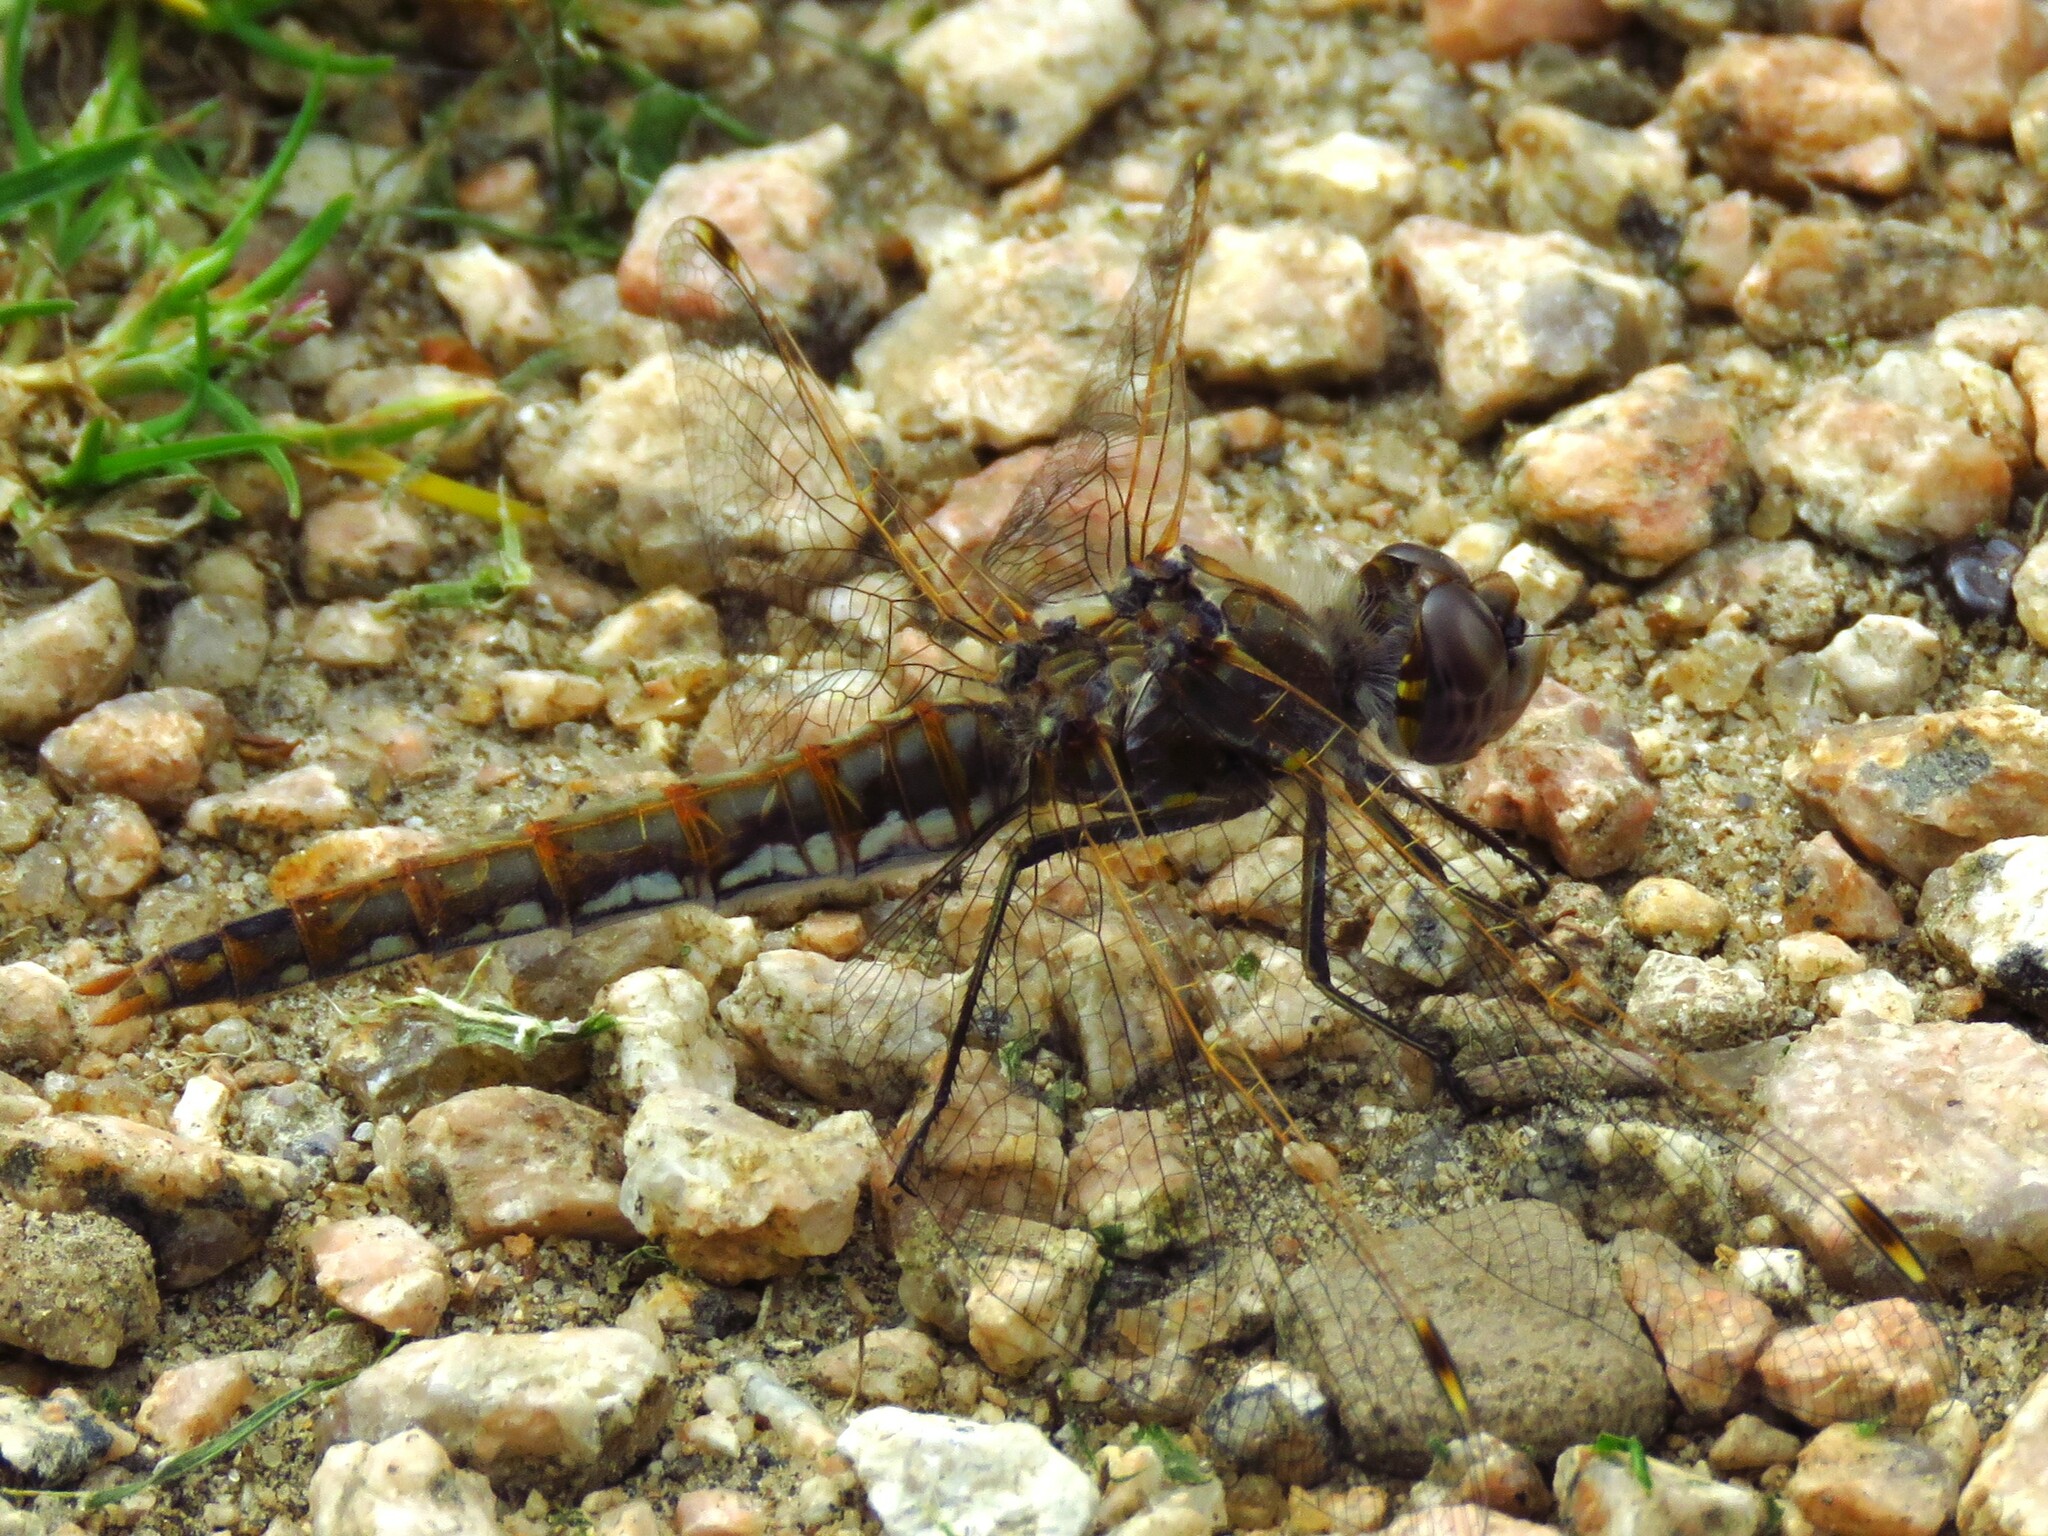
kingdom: Animalia
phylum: Arthropoda
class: Insecta
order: Odonata
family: Libellulidae
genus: Sympetrum
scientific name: Sympetrum corruptum
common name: Variegated meadowhawk
